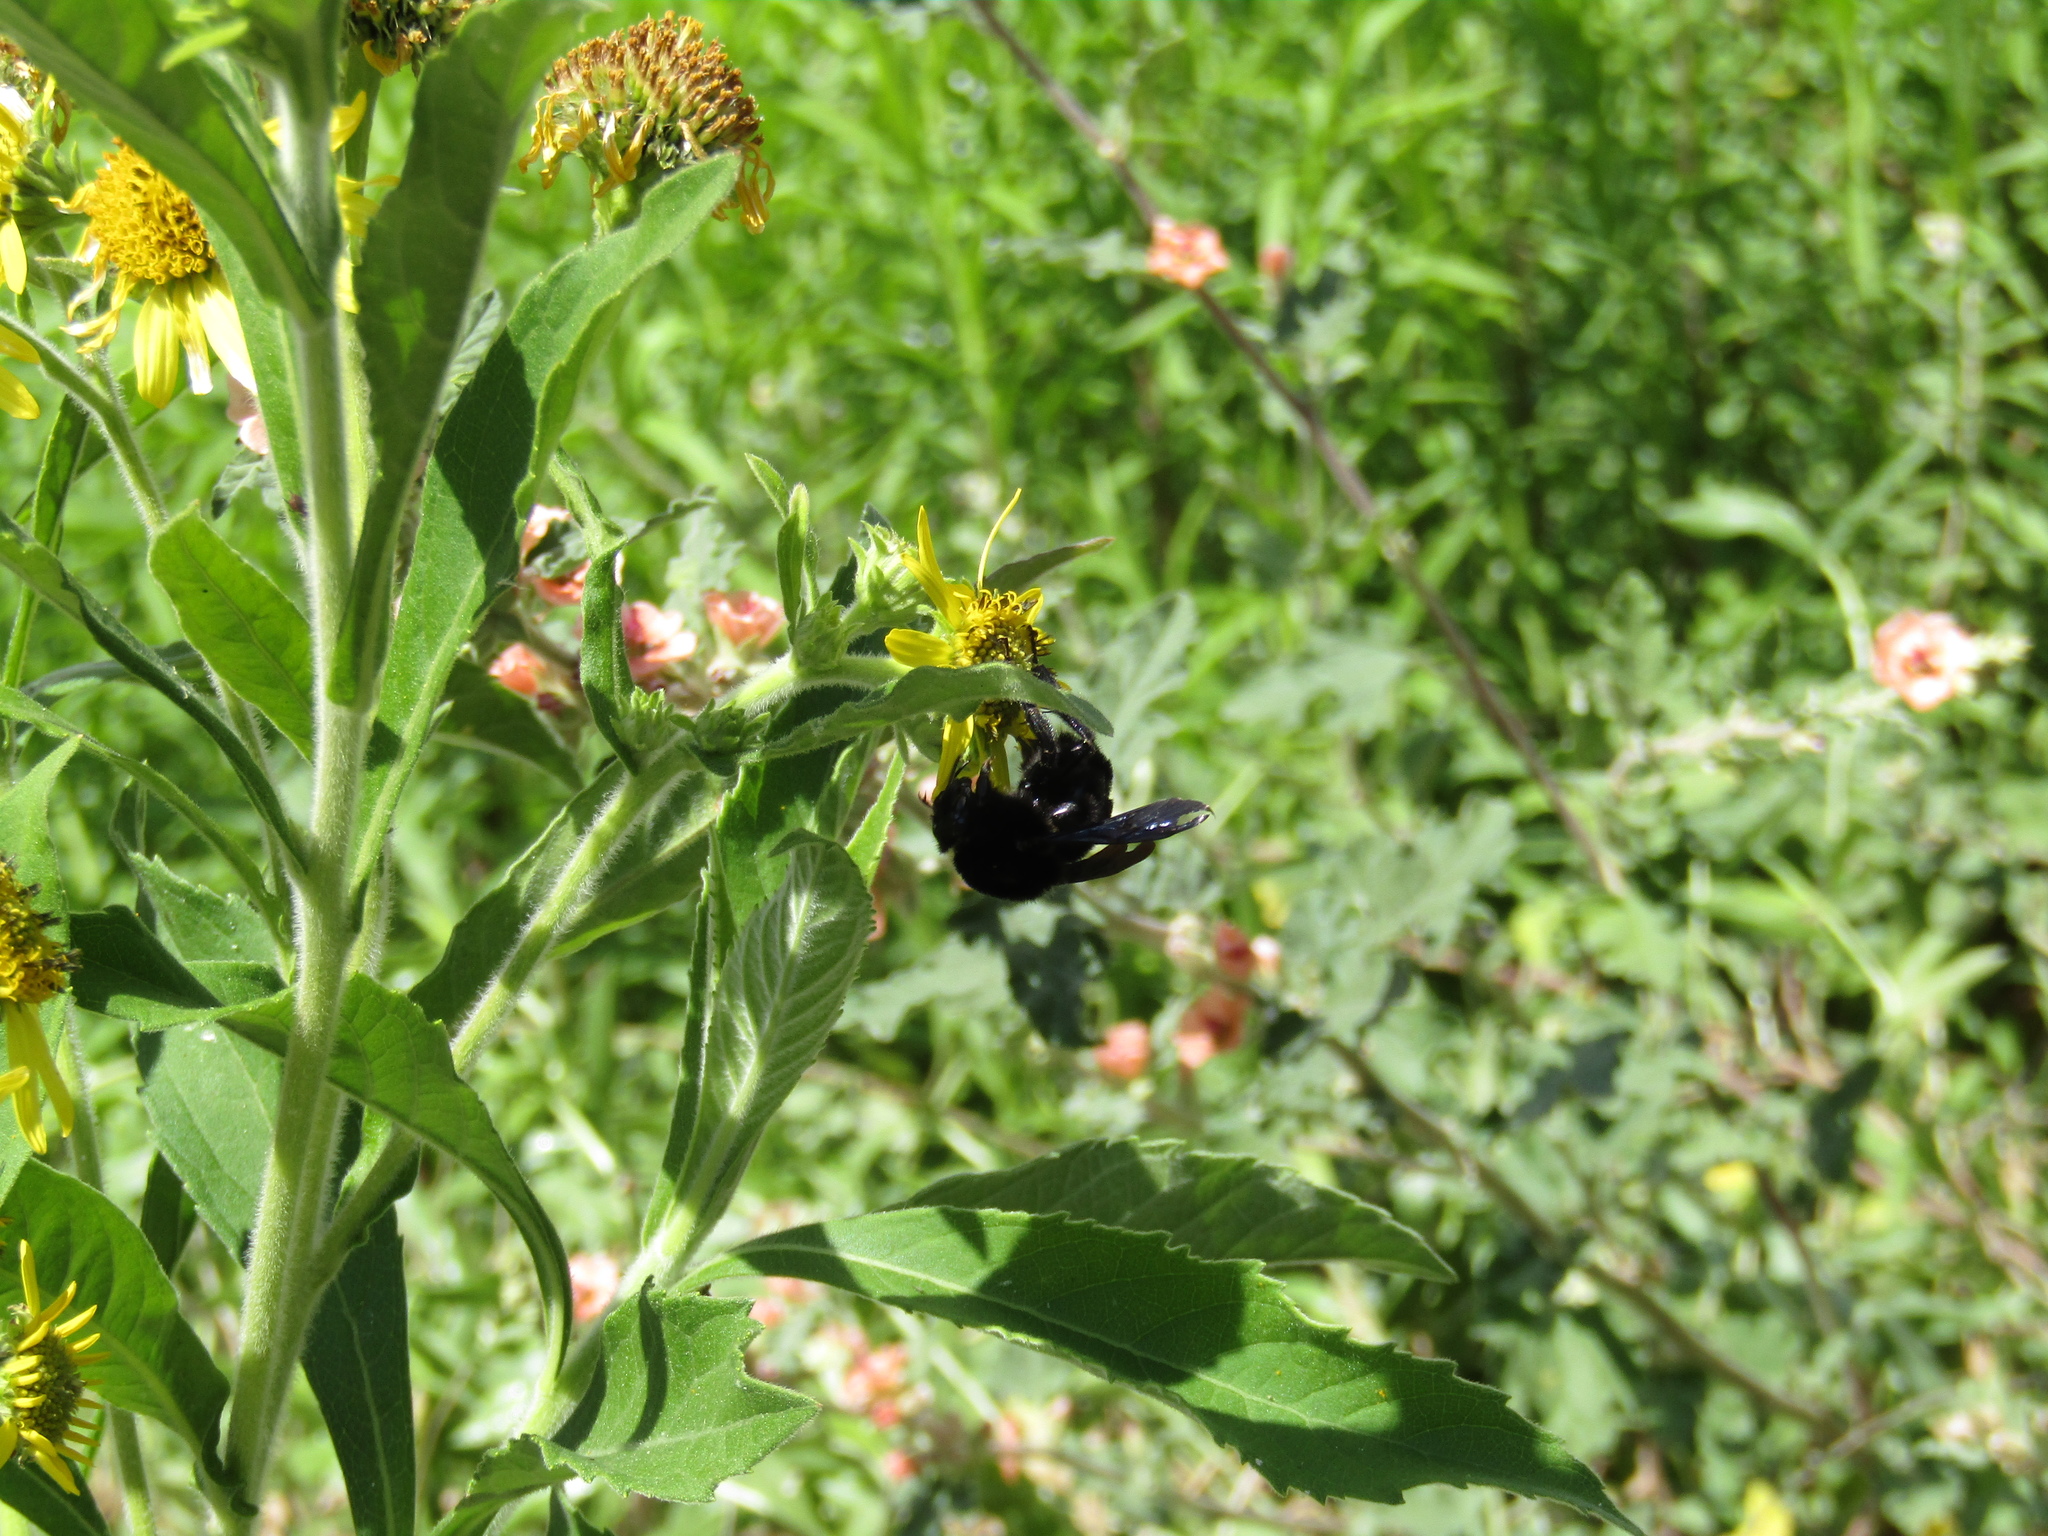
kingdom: Animalia
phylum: Arthropoda
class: Insecta
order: Hymenoptera
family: Apidae
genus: Bombus
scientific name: Bombus pauloensis
